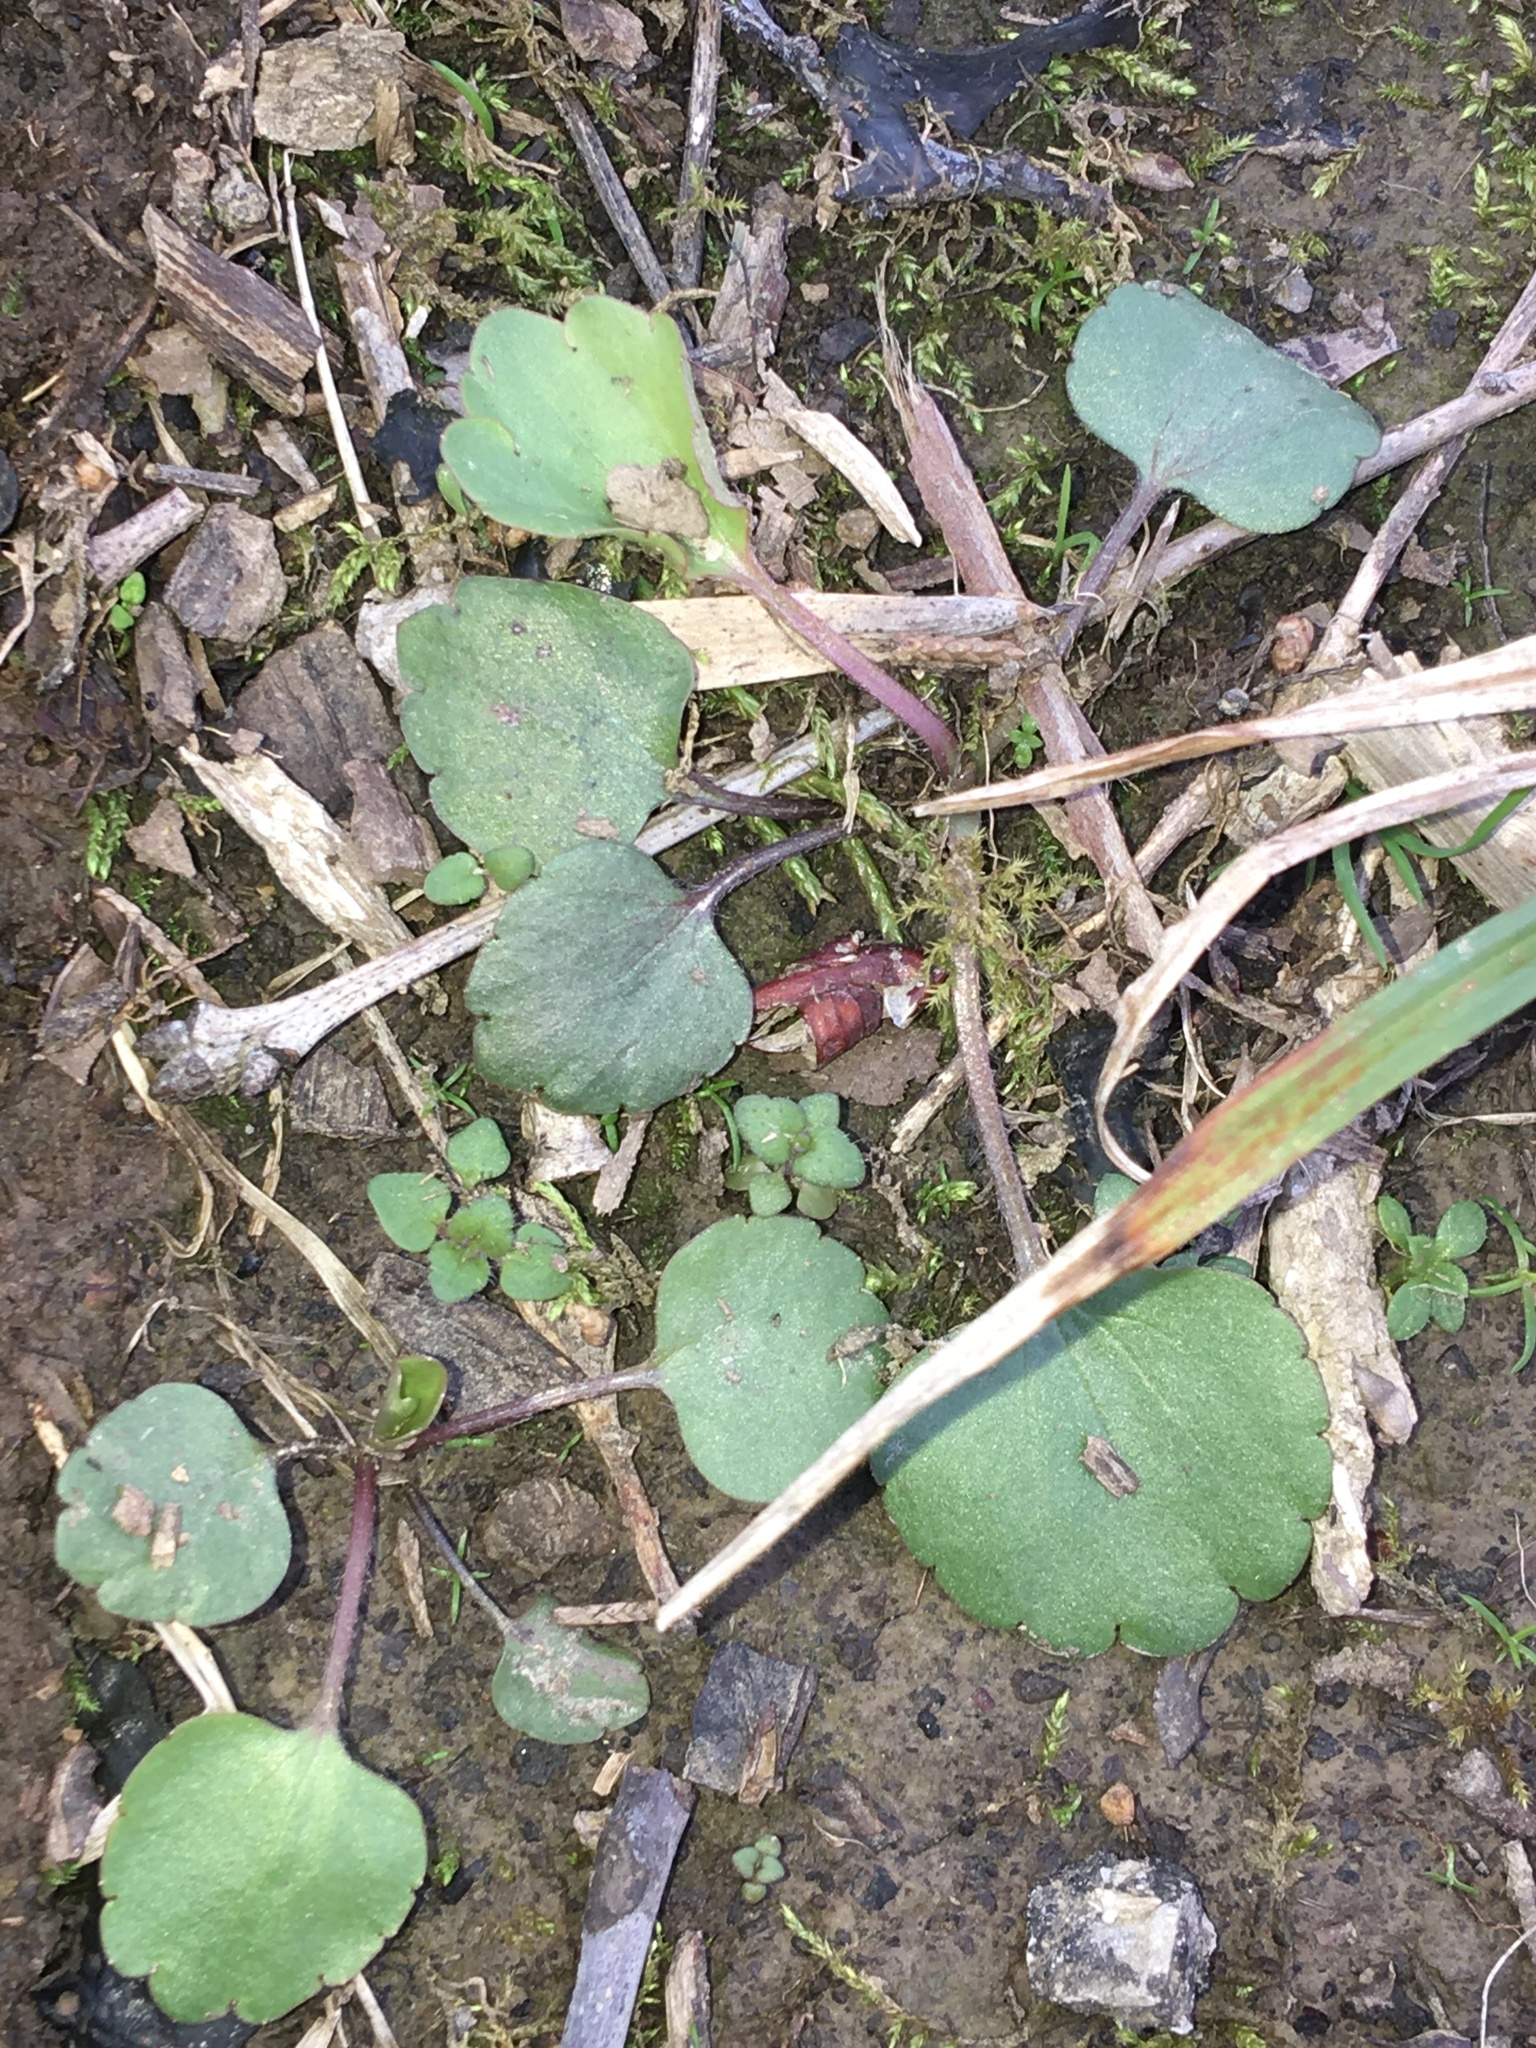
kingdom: Plantae
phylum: Tracheophyta
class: Magnoliopsida
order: Ranunculales
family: Ranunculaceae
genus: Ranunculus
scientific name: Ranunculus micranthus
